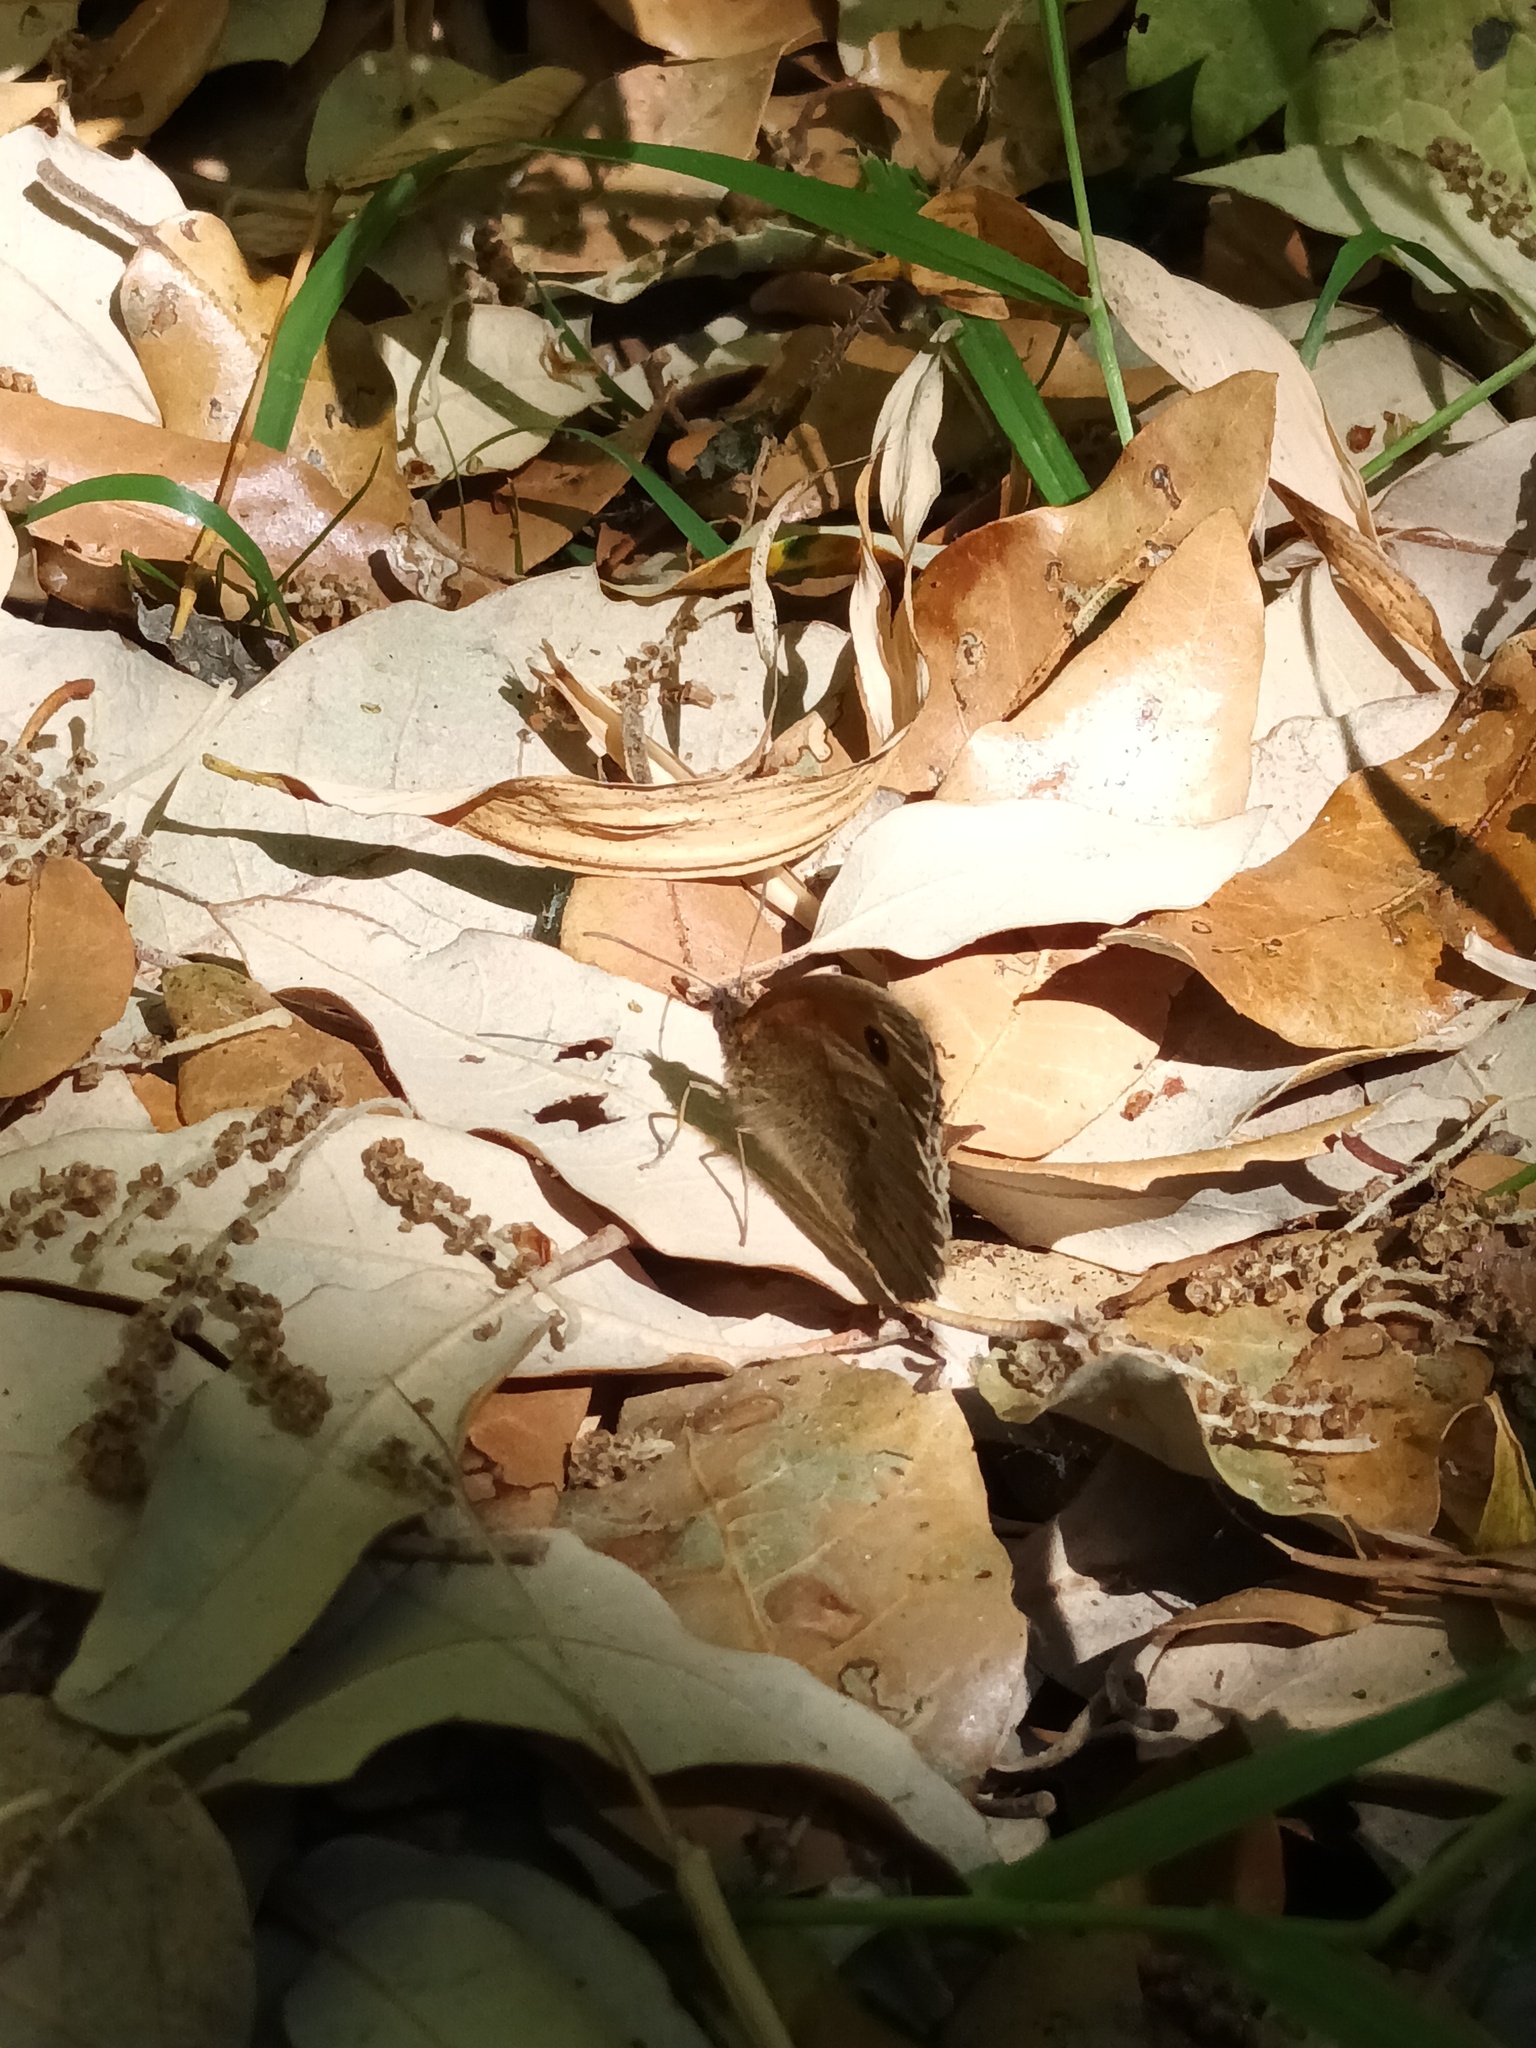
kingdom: Animalia
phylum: Arthropoda
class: Insecta
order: Lepidoptera
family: Nymphalidae
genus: Maniola
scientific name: Maniola jurtina
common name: Meadow brown
